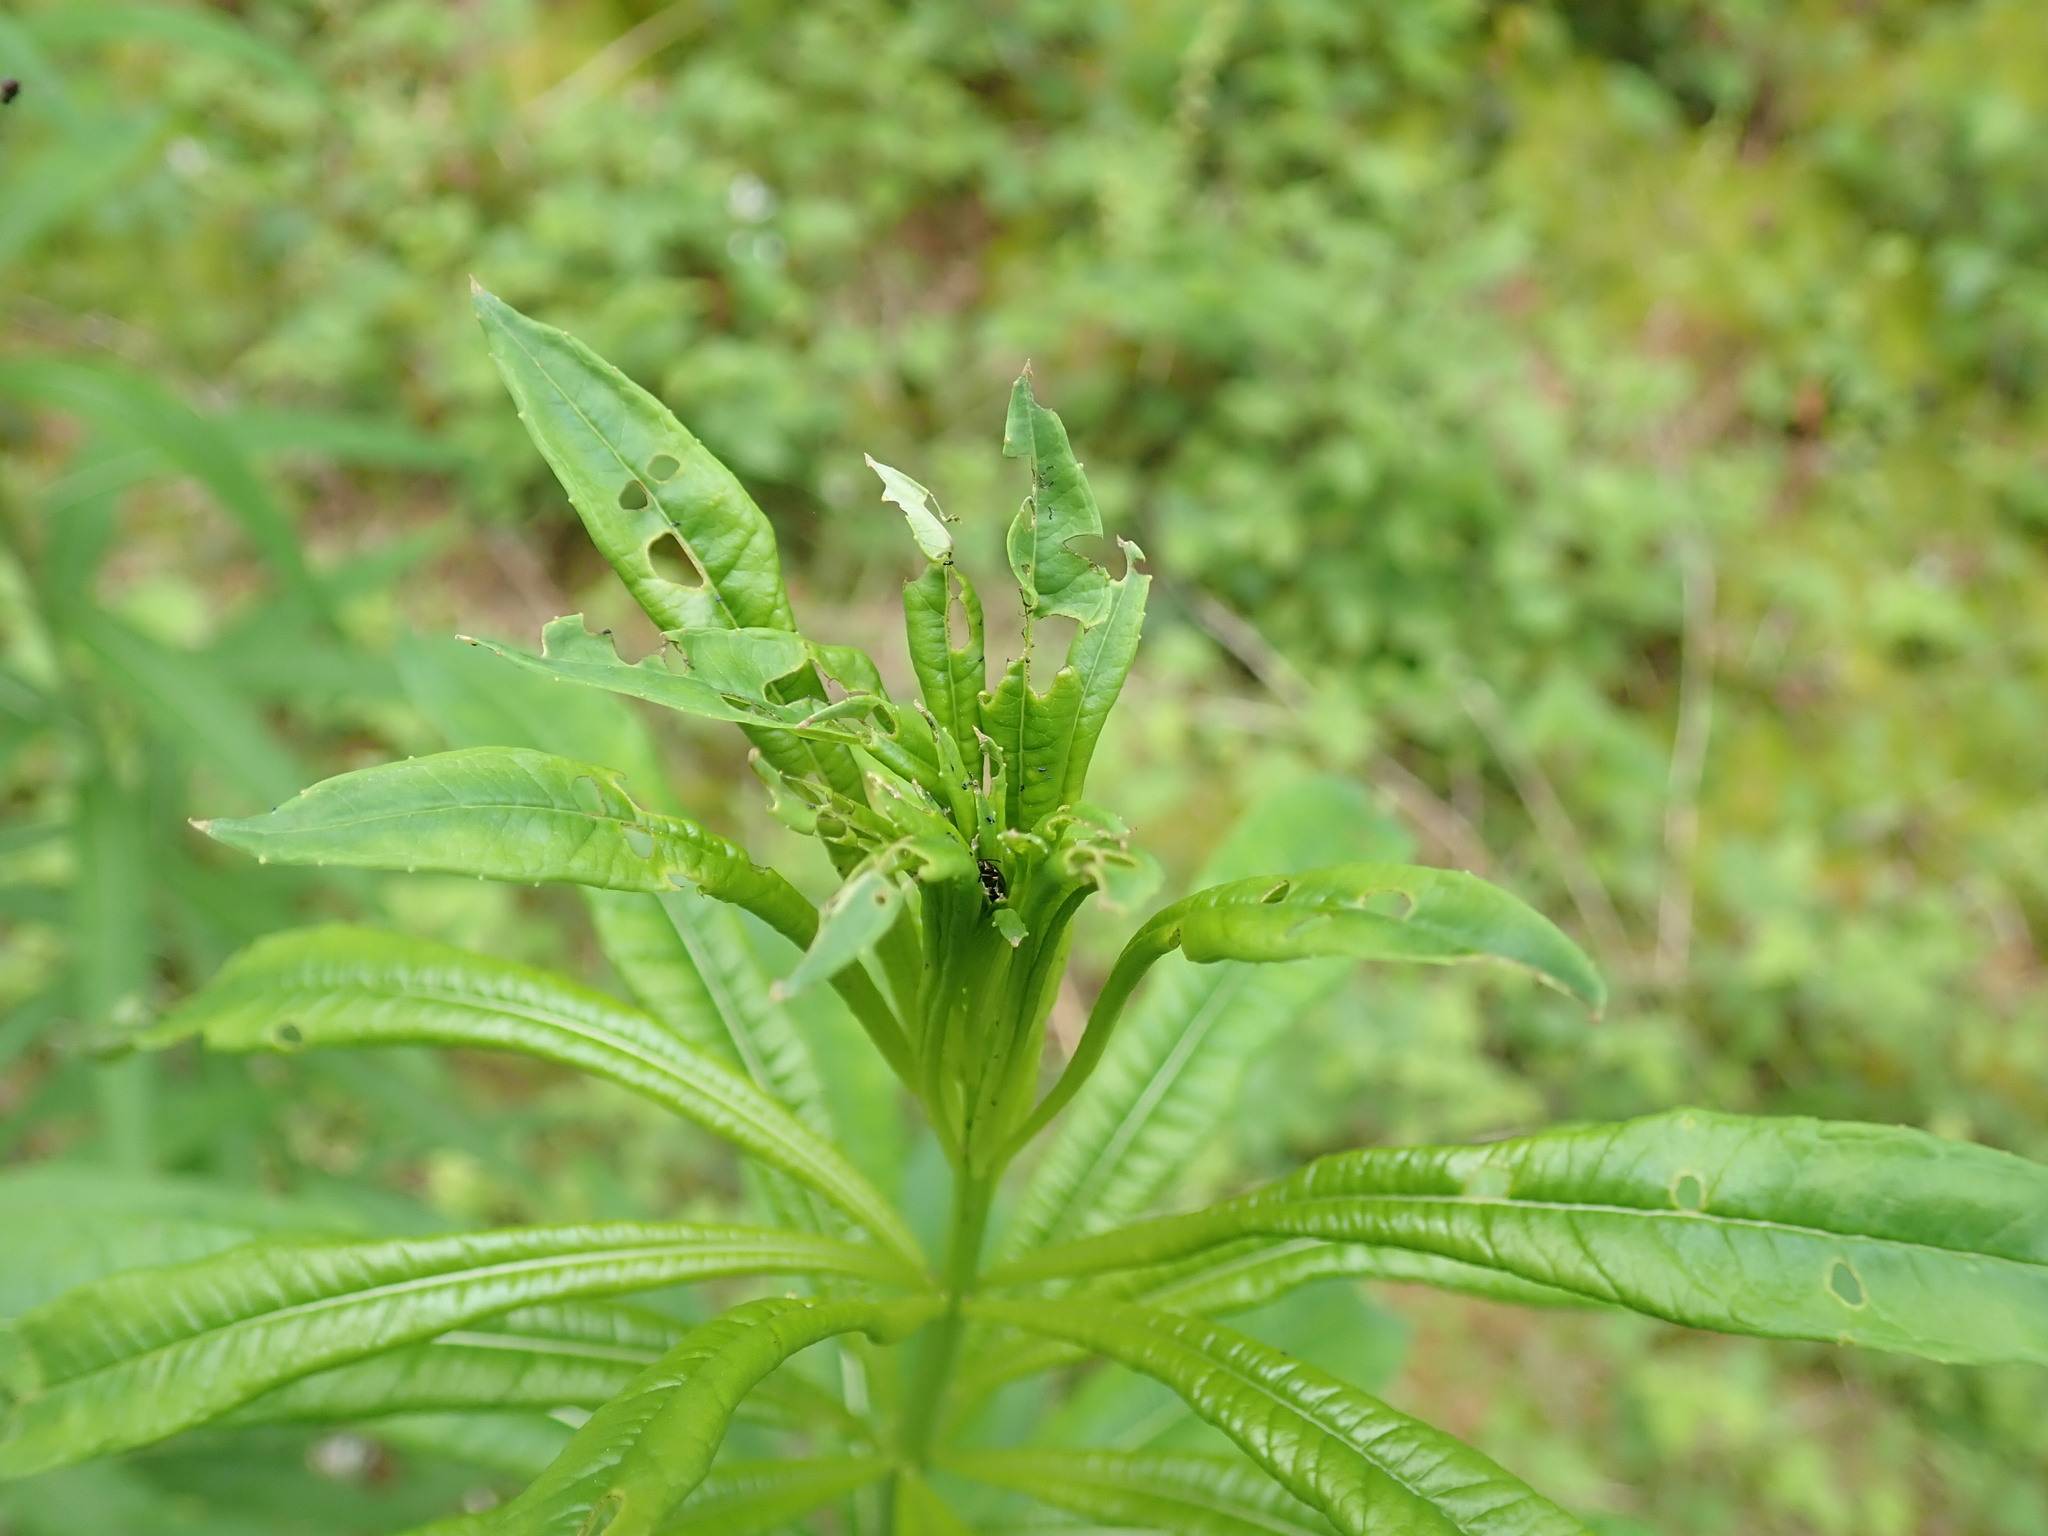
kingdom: Plantae
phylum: Tracheophyta
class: Magnoliopsida
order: Myrtales
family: Onagraceae
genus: Chamaenerion
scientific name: Chamaenerion angustifolium
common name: Fireweed
